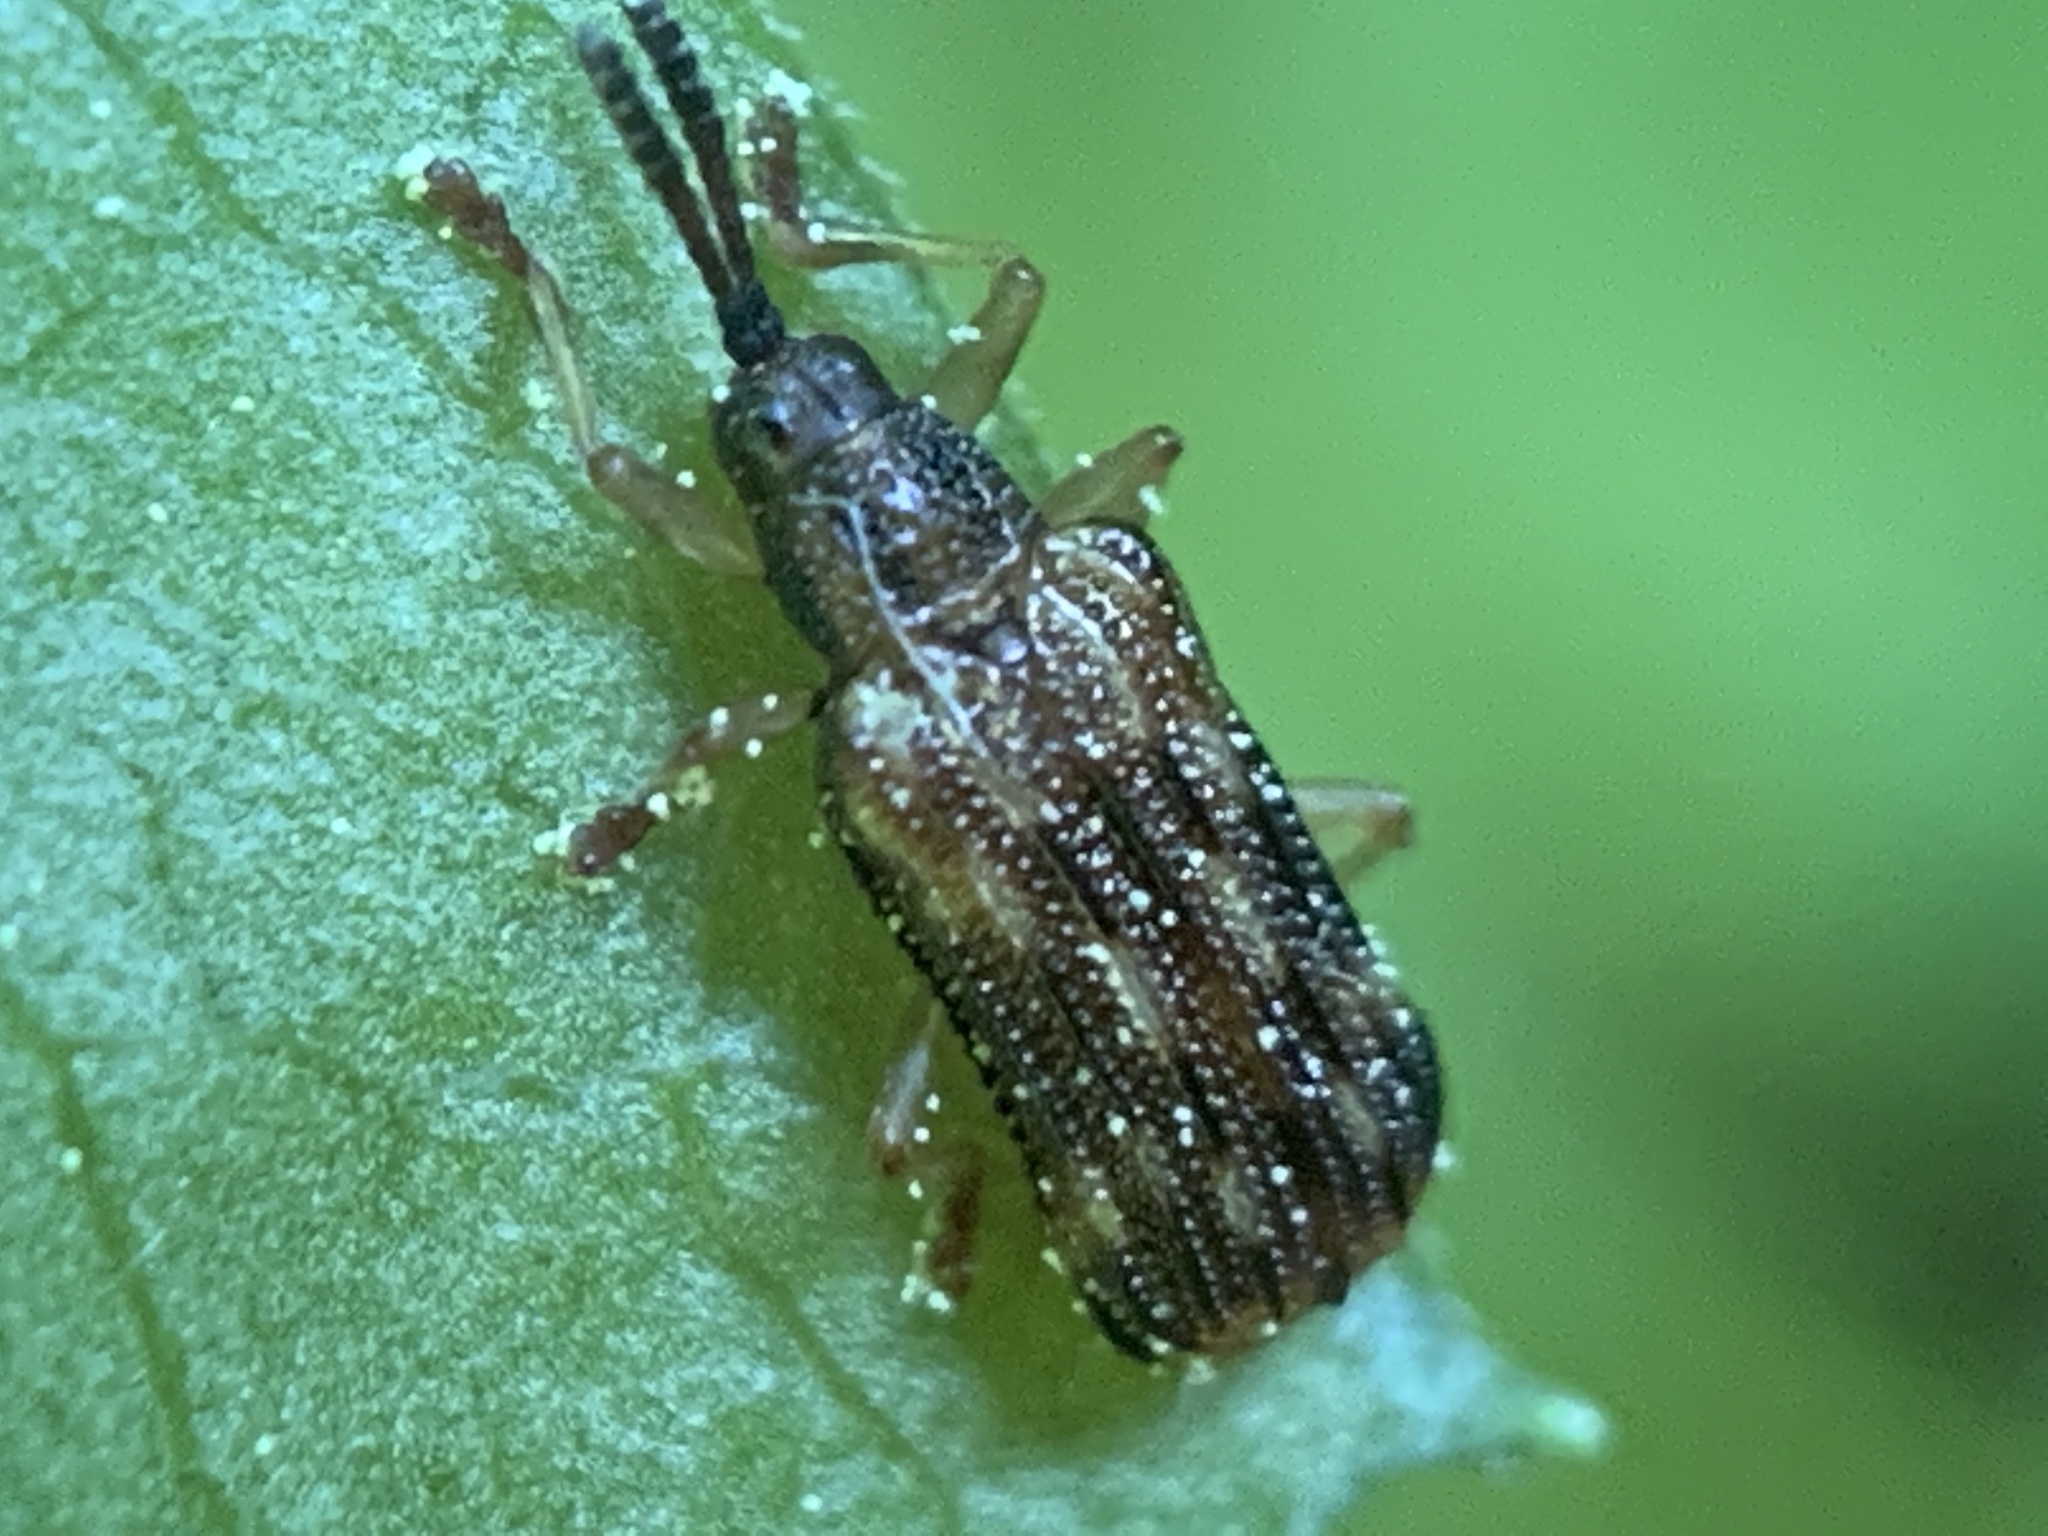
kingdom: Animalia
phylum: Arthropoda
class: Insecta
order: Coleoptera
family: Chrysomelidae
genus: Sumitrosis
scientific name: Sumitrosis inaequalis
